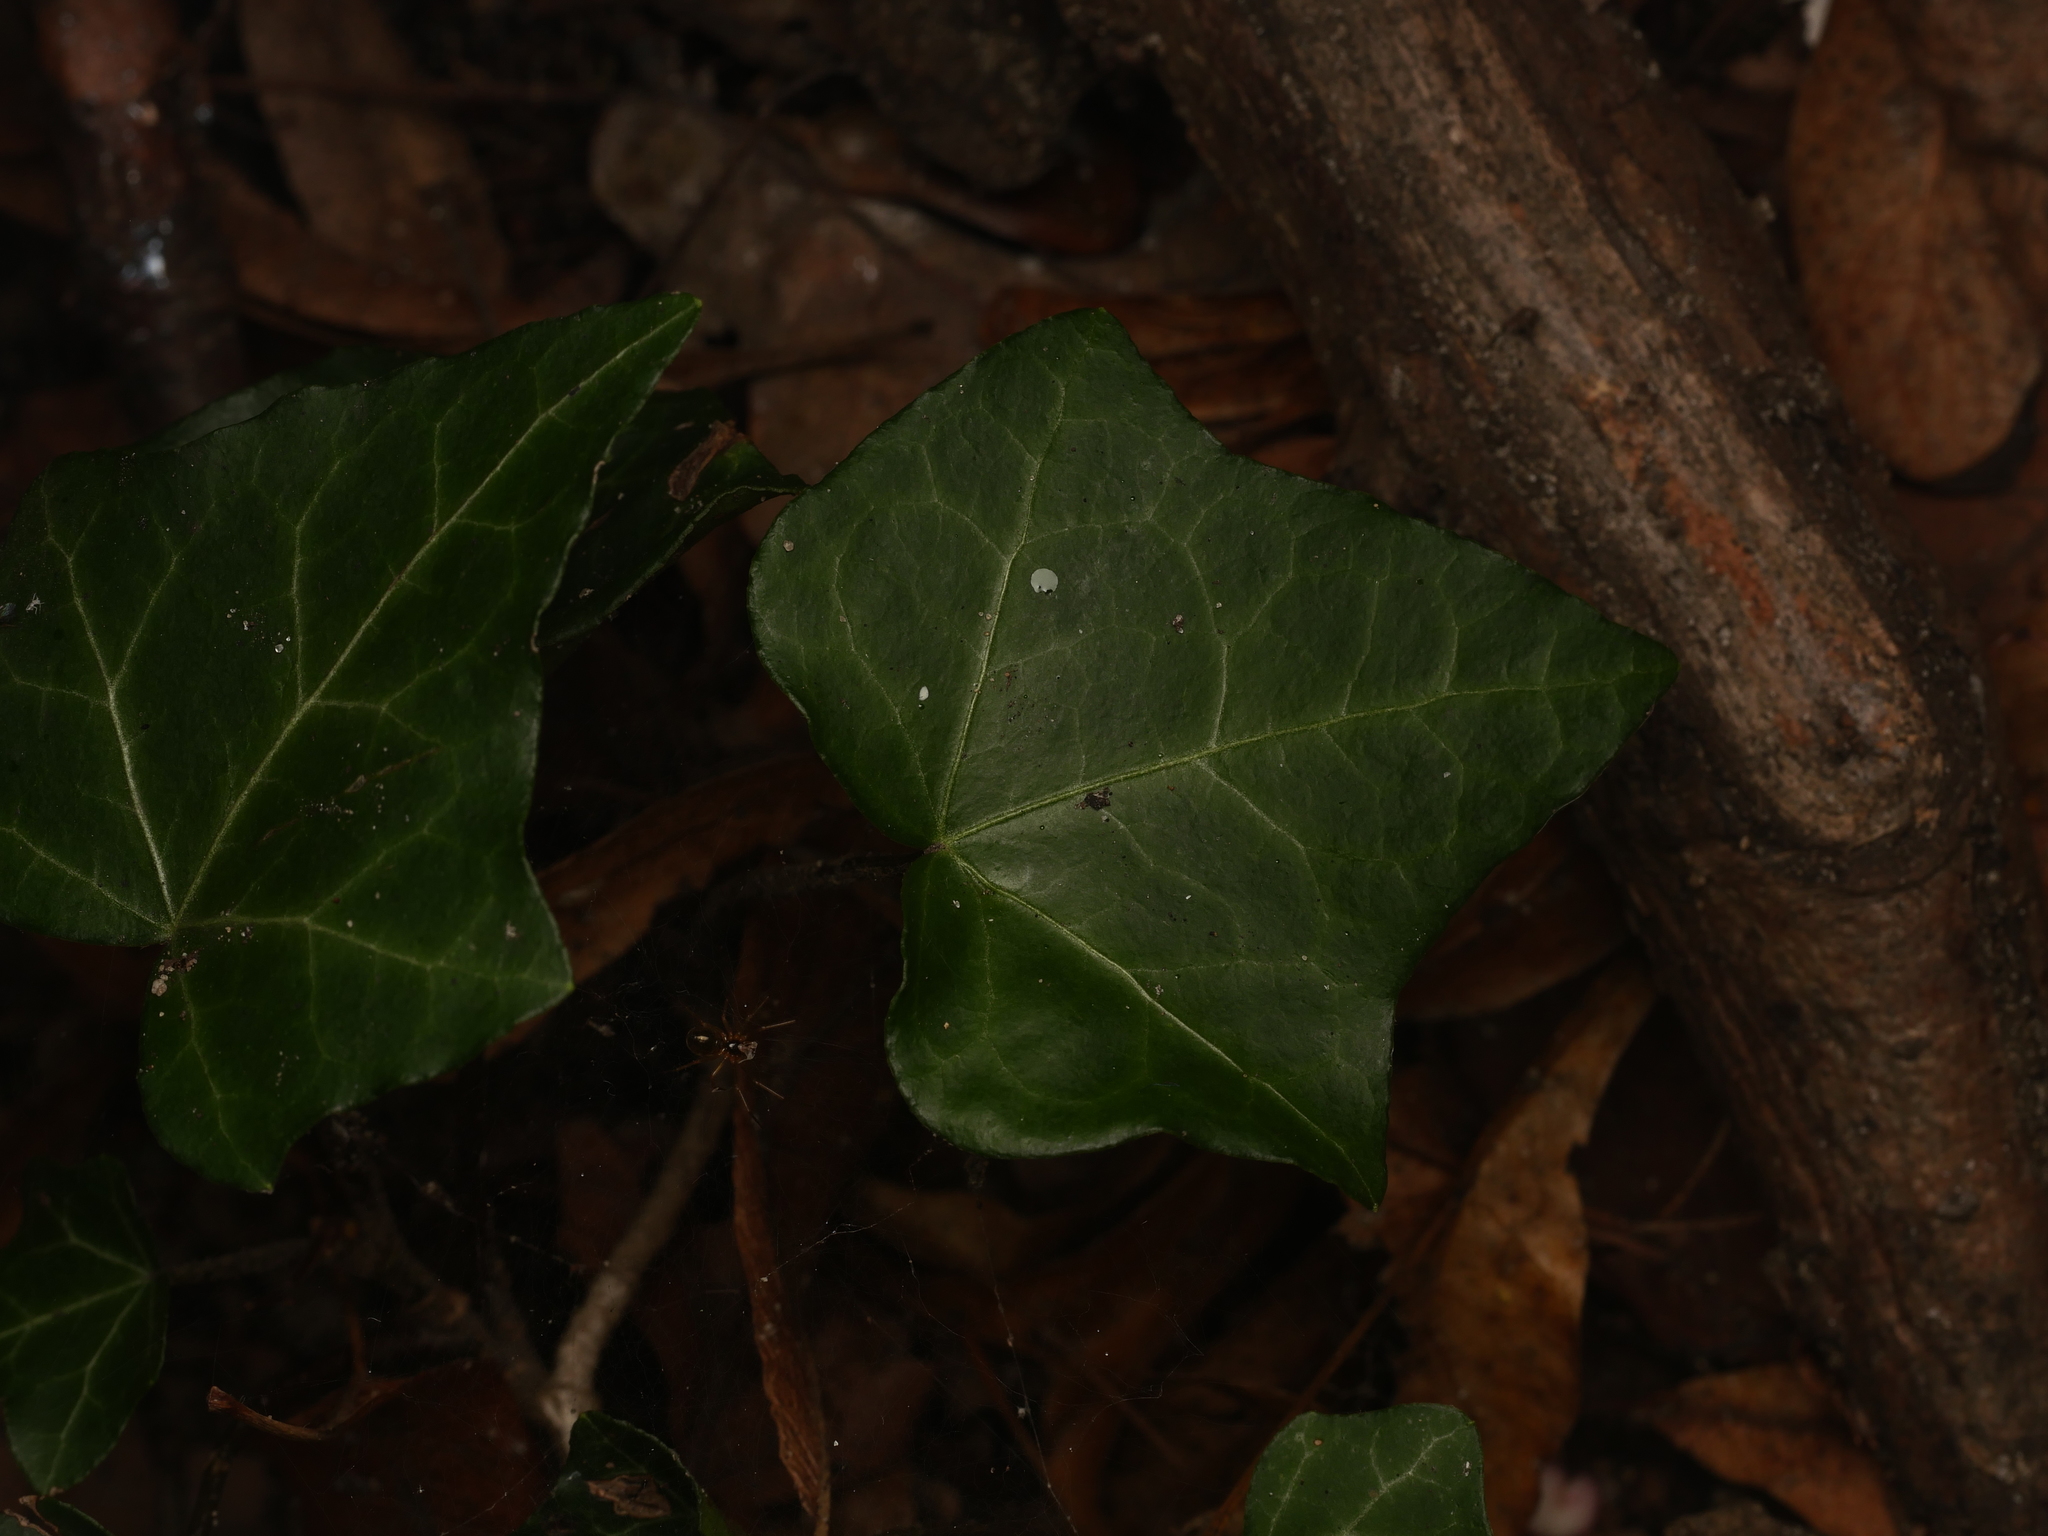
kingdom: Plantae
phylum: Tracheophyta
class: Magnoliopsida
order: Apiales
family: Araliaceae
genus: Hedera
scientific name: Hedera helix
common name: Ivy
